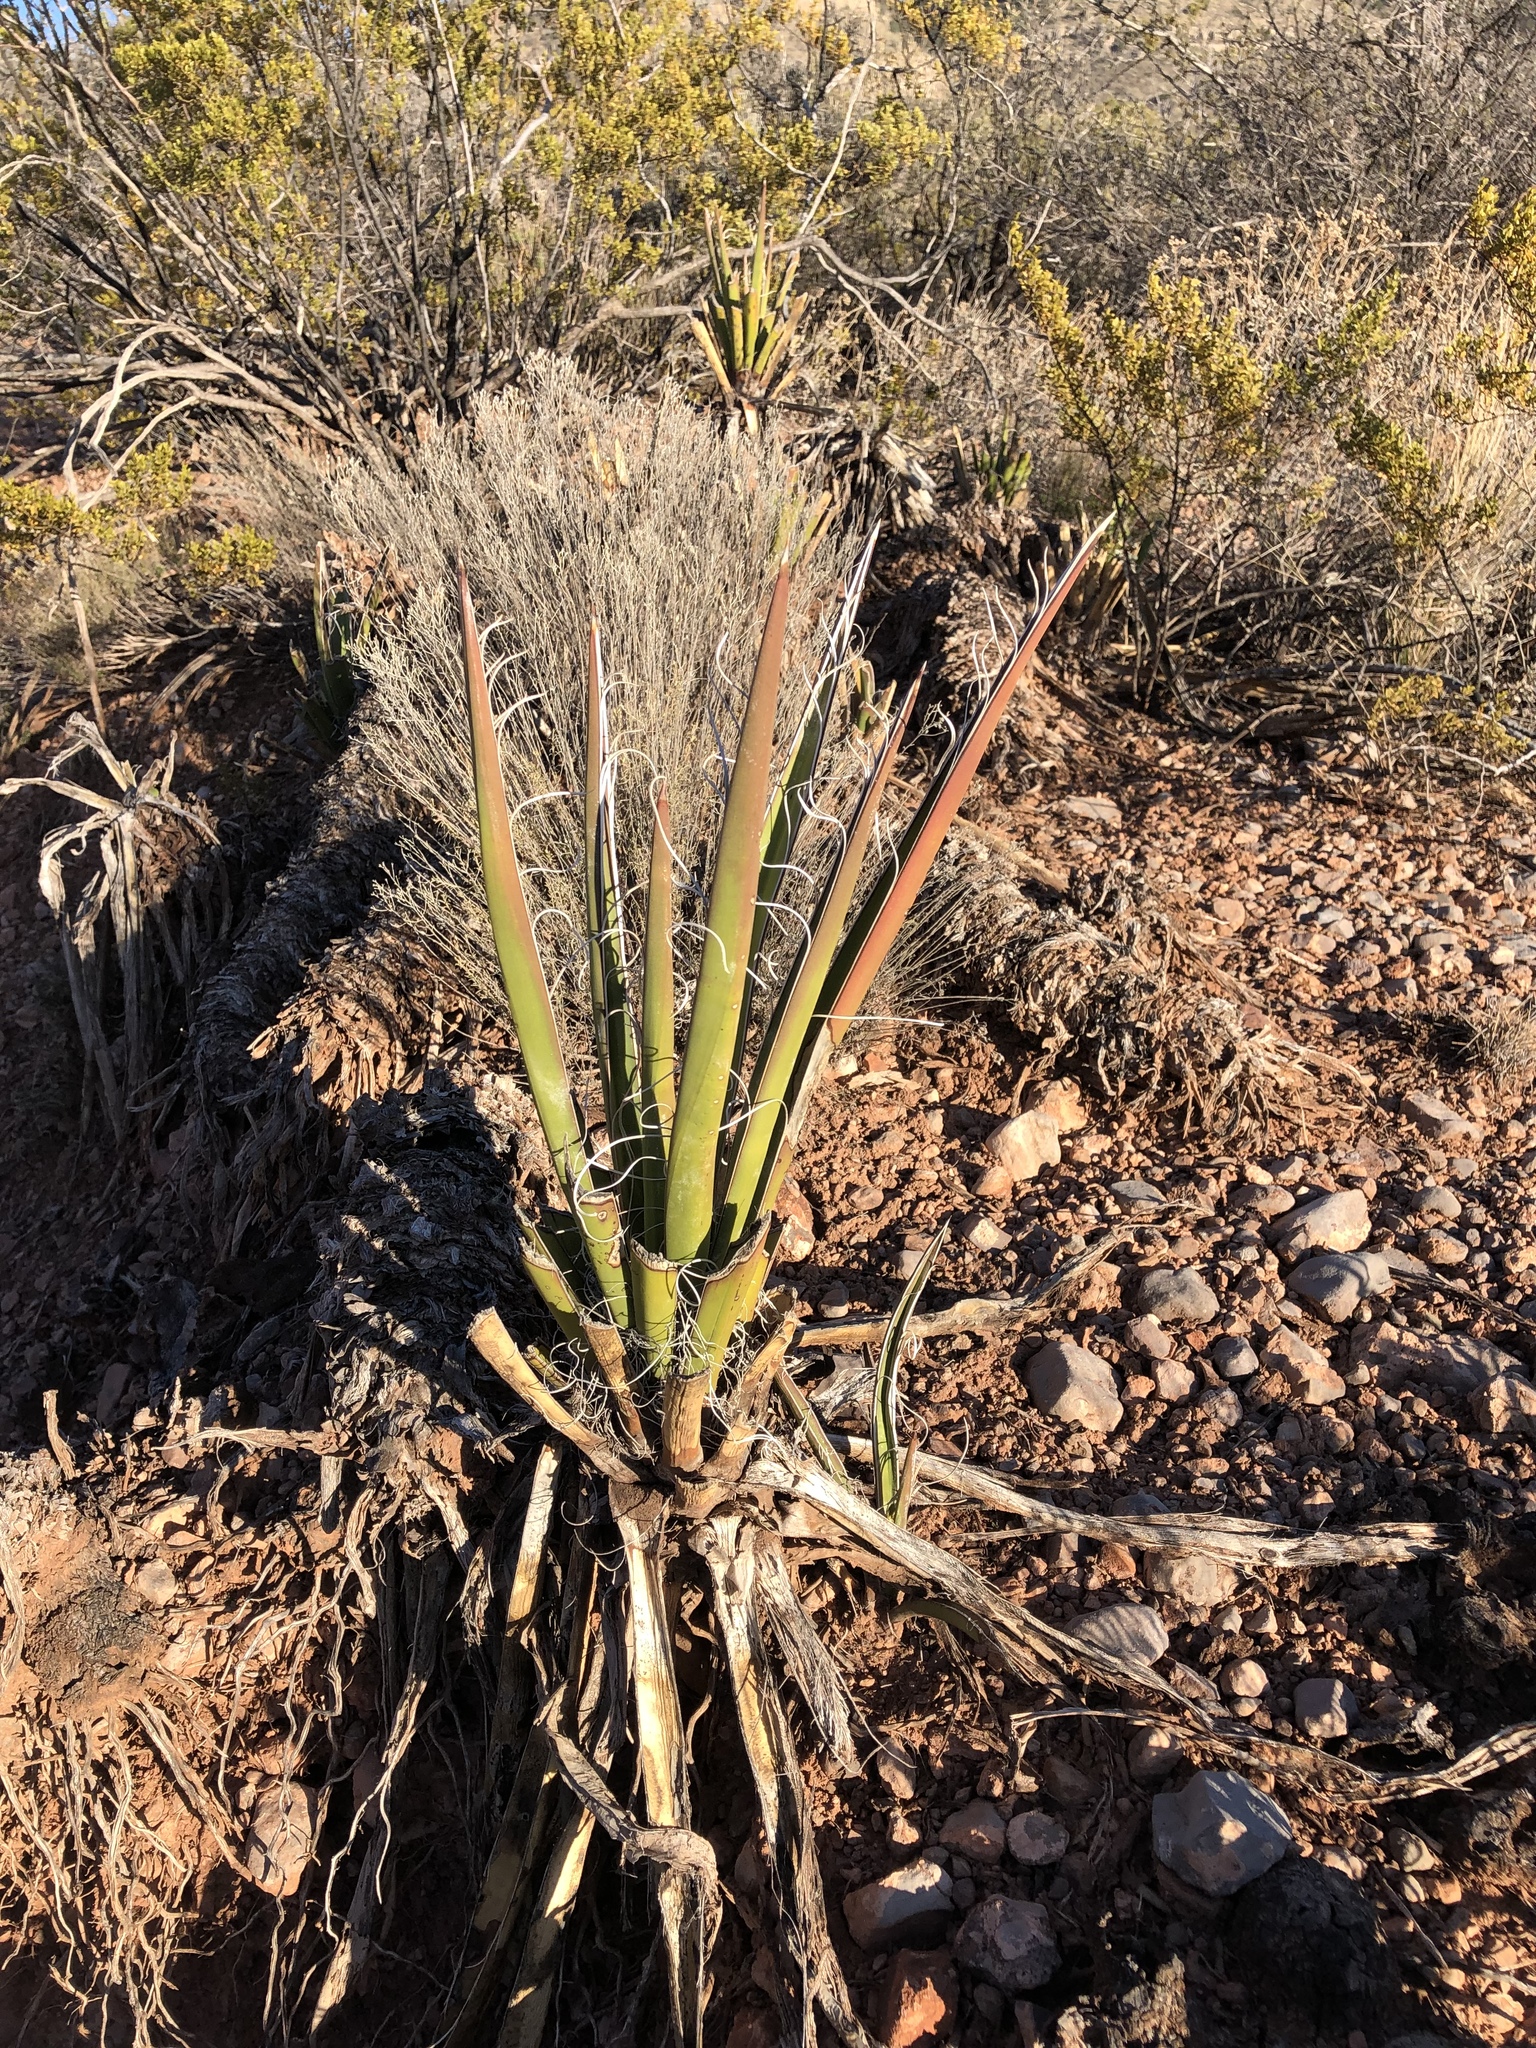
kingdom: Plantae
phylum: Tracheophyta
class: Liliopsida
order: Asparagales
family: Asparagaceae
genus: Yucca
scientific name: Yucca baccata
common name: Banana yucca
